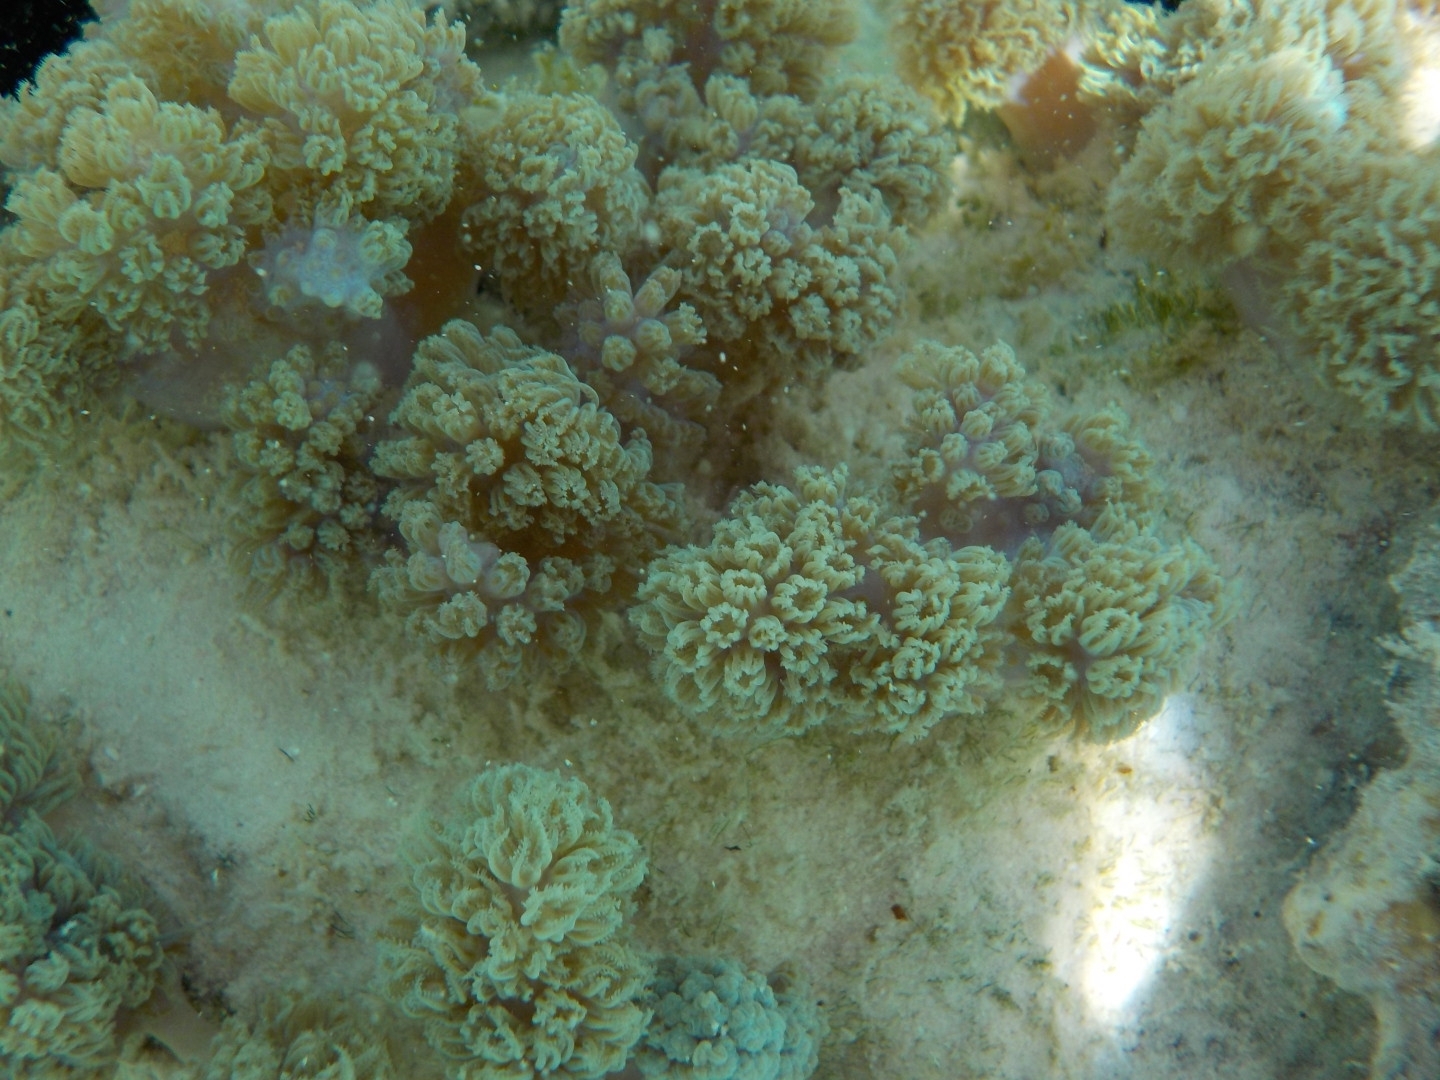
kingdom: Animalia
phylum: Cnidaria
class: Anthozoa
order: Malacalcyonacea
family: Xeniidae
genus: Conglomeratusclera
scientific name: Conglomeratusclera coerulea
